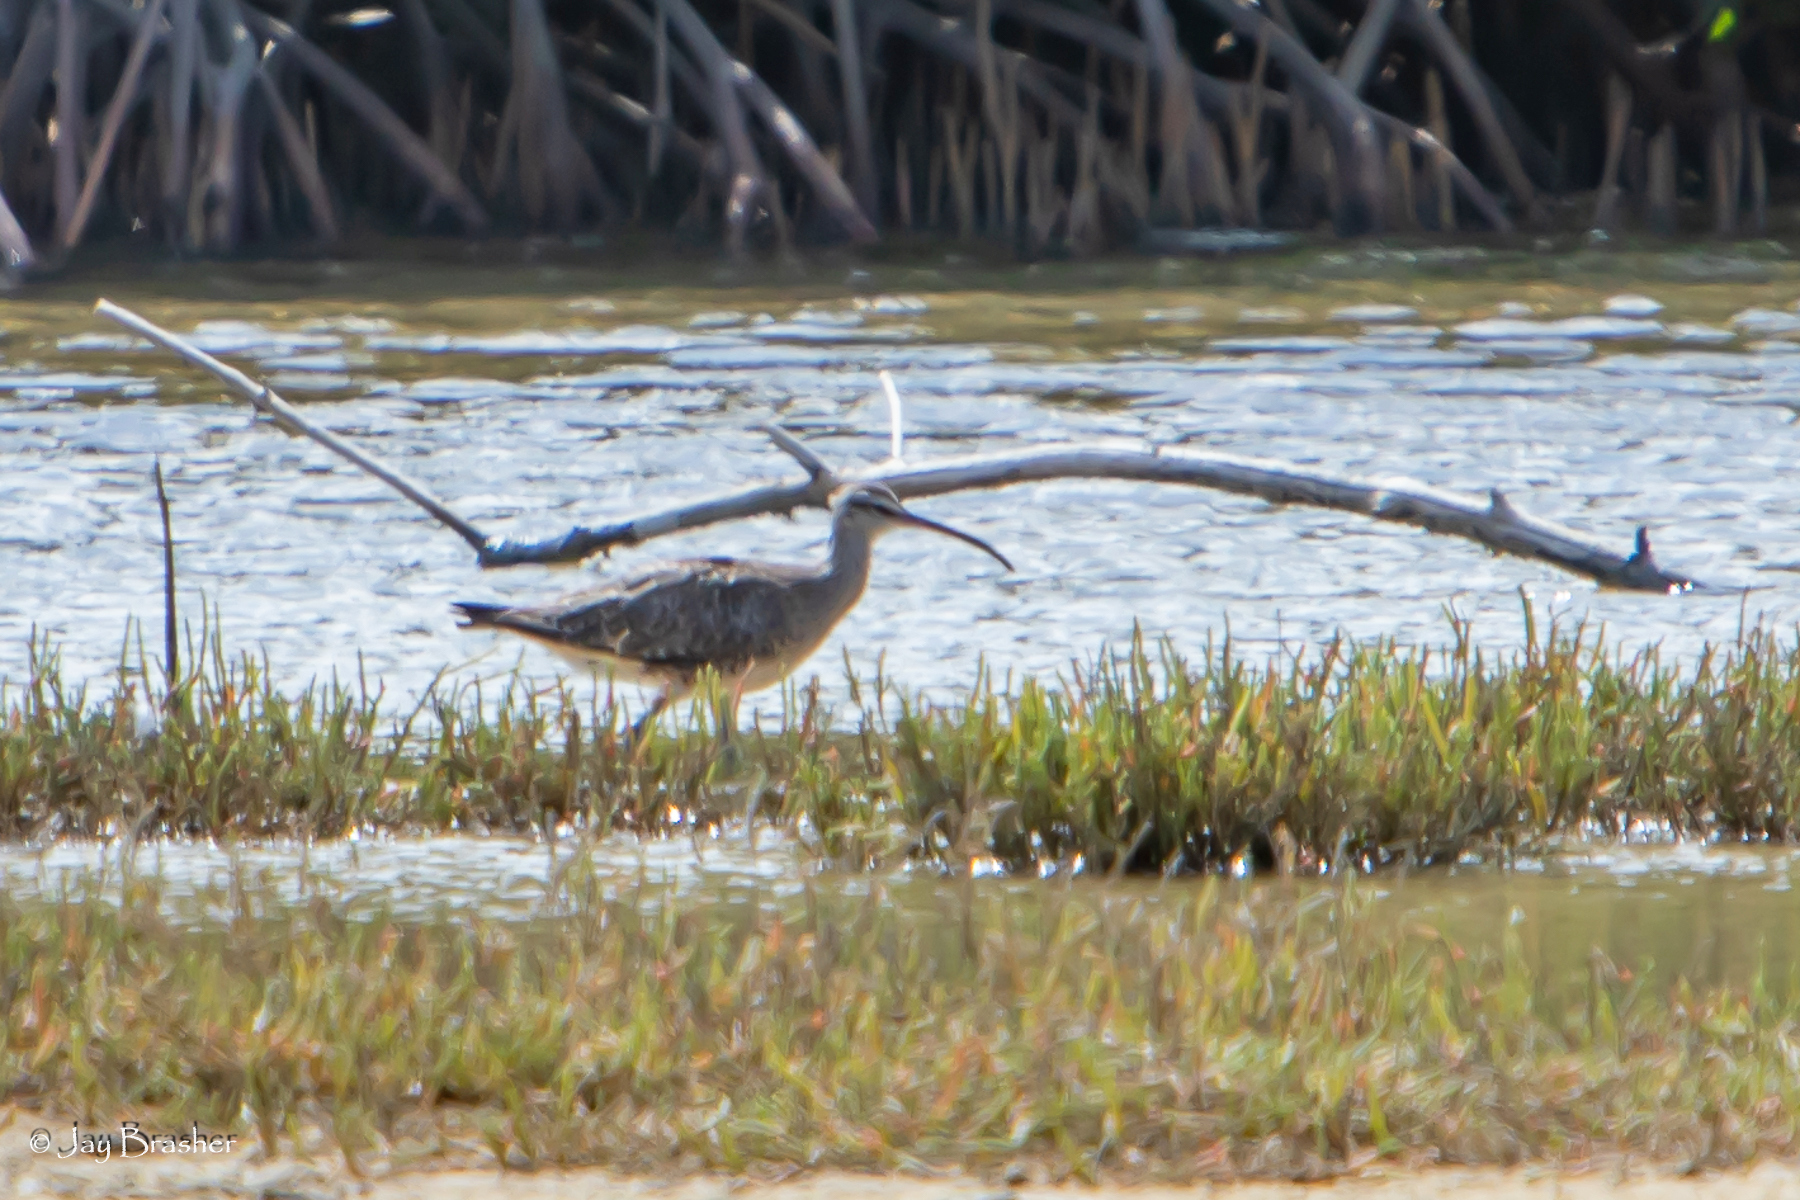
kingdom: Animalia
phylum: Chordata
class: Aves
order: Charadriiformes
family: Scolopacidae
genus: Numenius
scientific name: Numenius phaeopus
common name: Whimbrel
